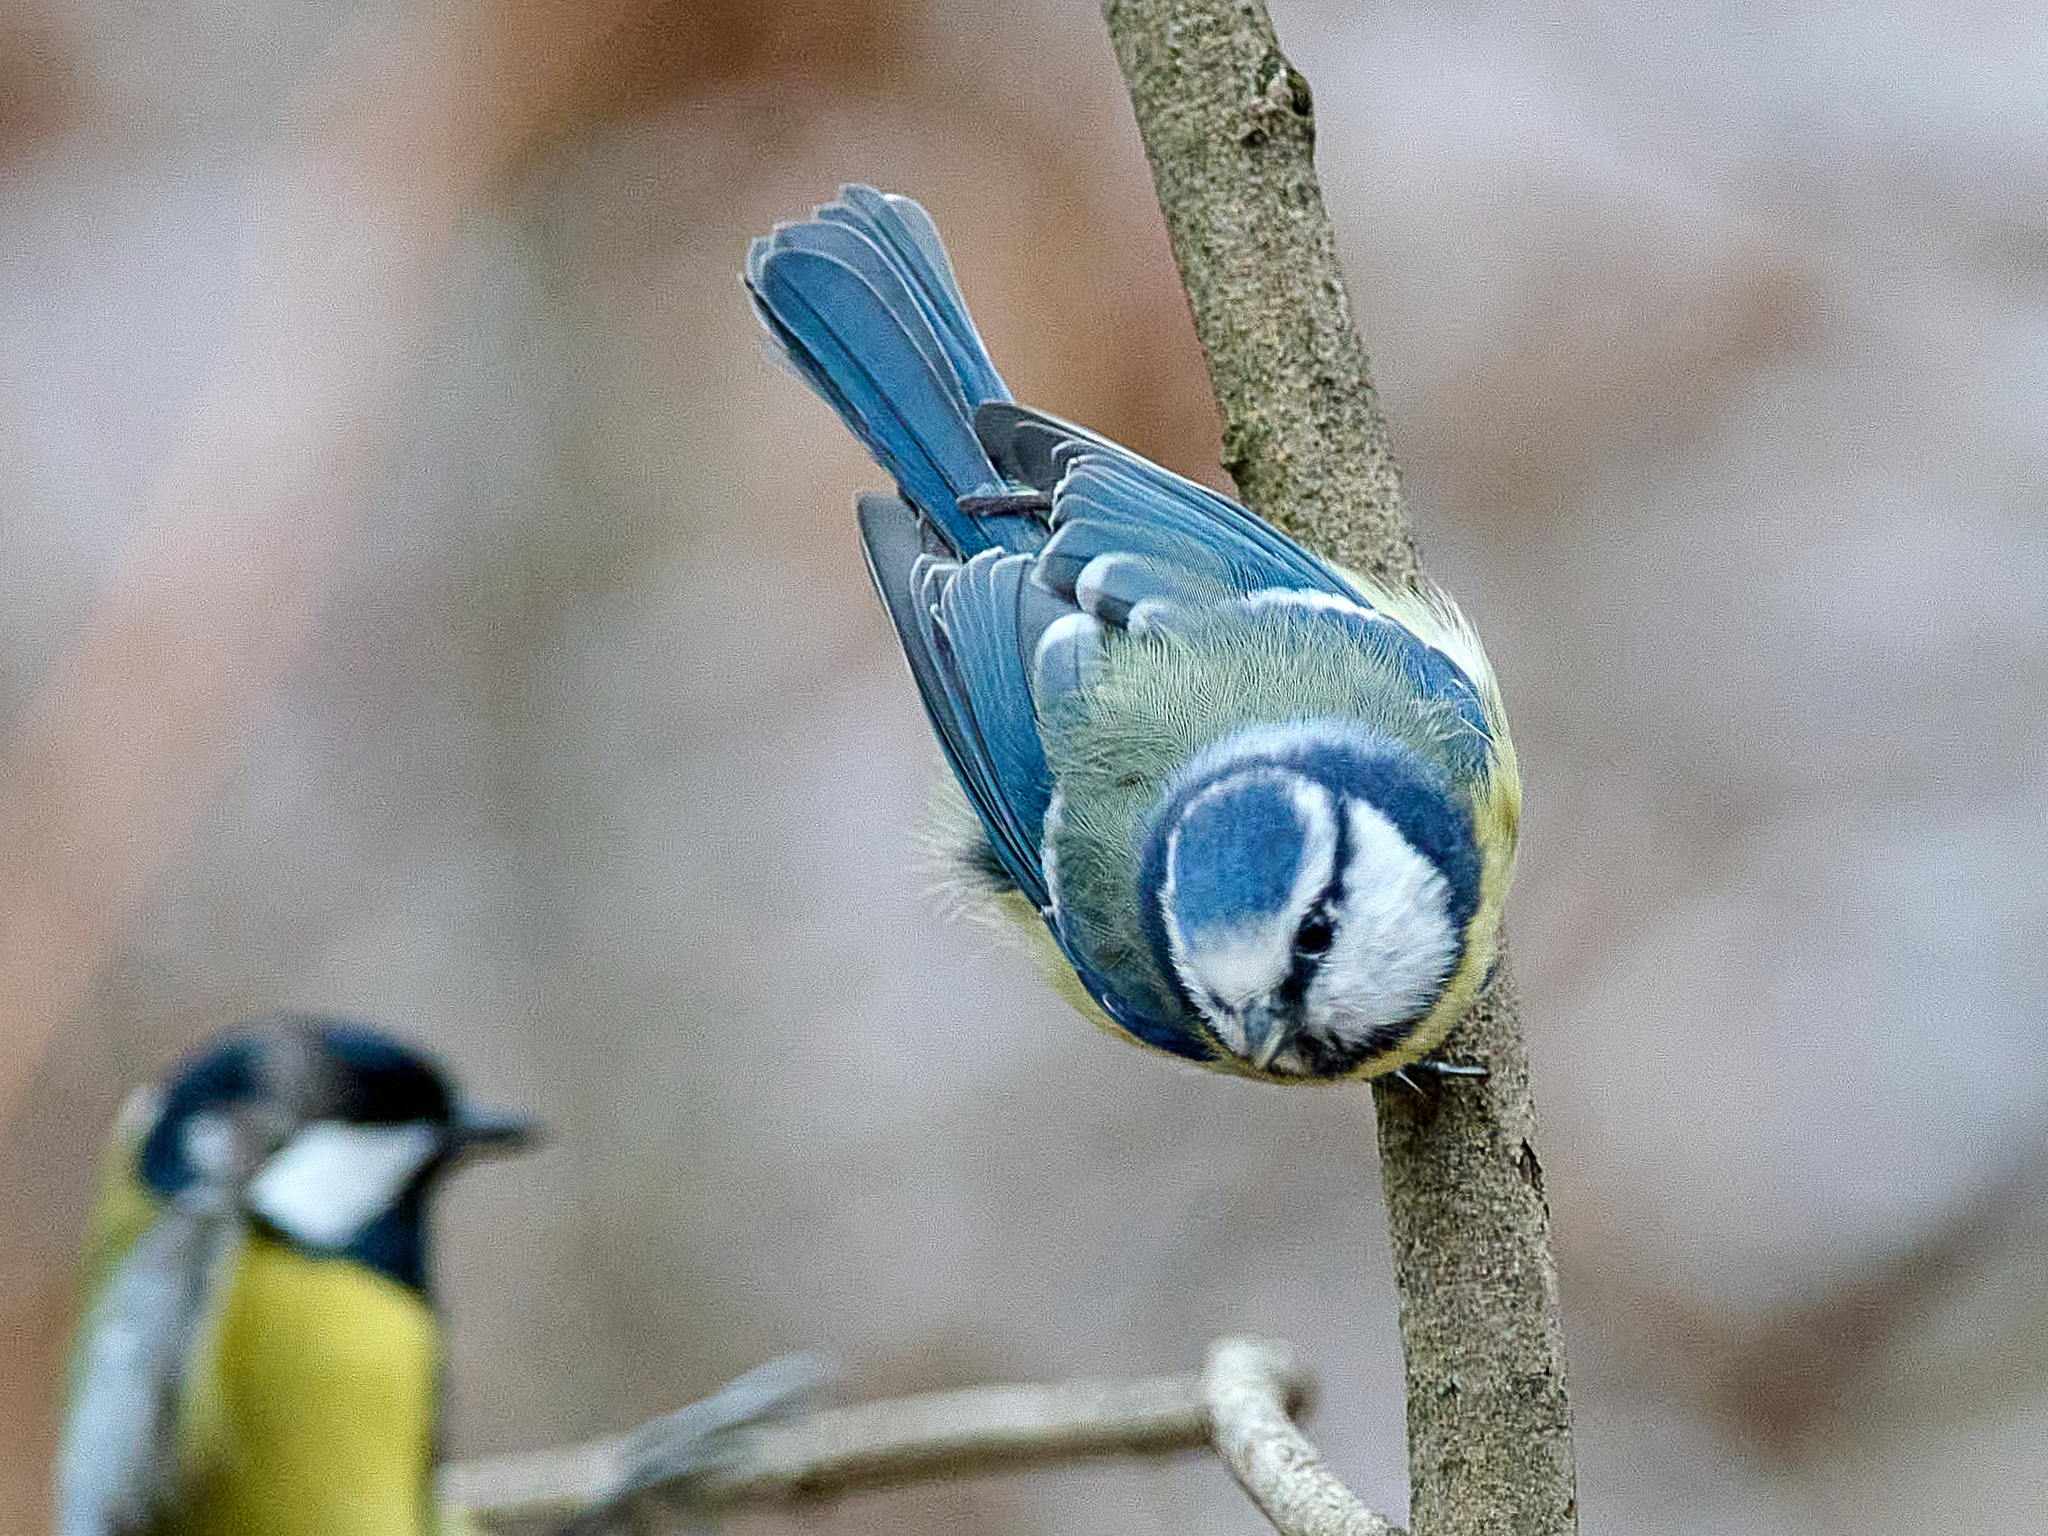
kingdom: Animalia
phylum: Chordata
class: Aves
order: Passeriformes
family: Paridae
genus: Cyanistes
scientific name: Cyanistes caeruleus
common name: Eurasian blue tit
